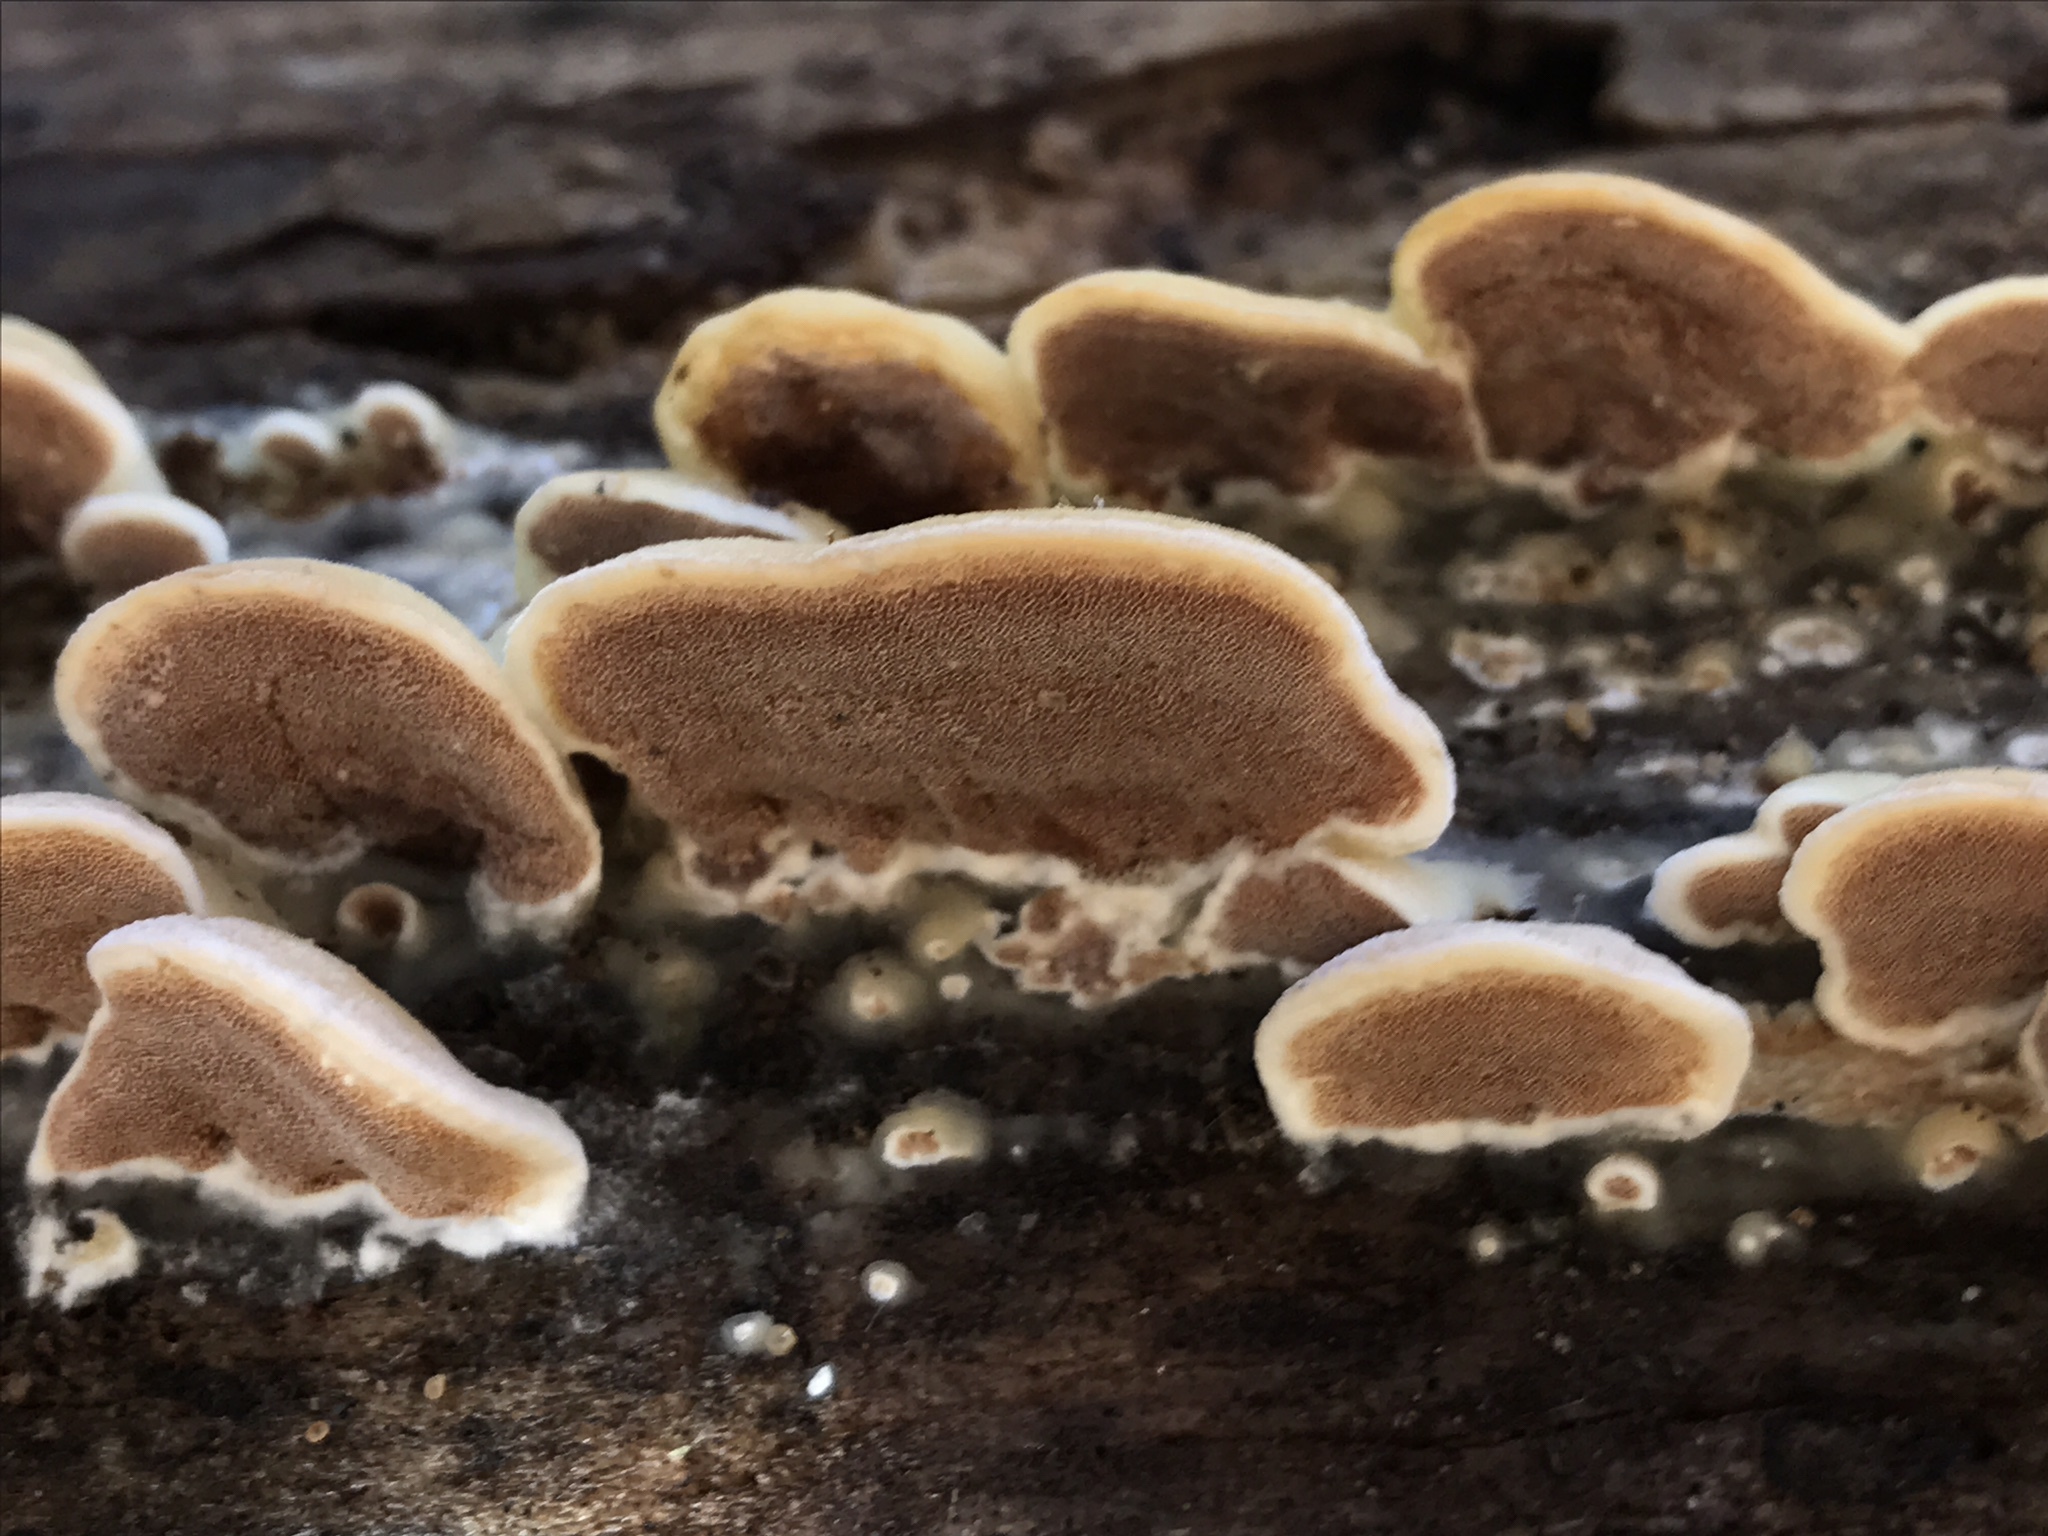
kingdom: Fungi
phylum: Basidiomycota
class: Agaricomycetes
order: Polyporales
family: Irpicaceae
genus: Vitreoporus
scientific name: Vitreoporus dichrous
